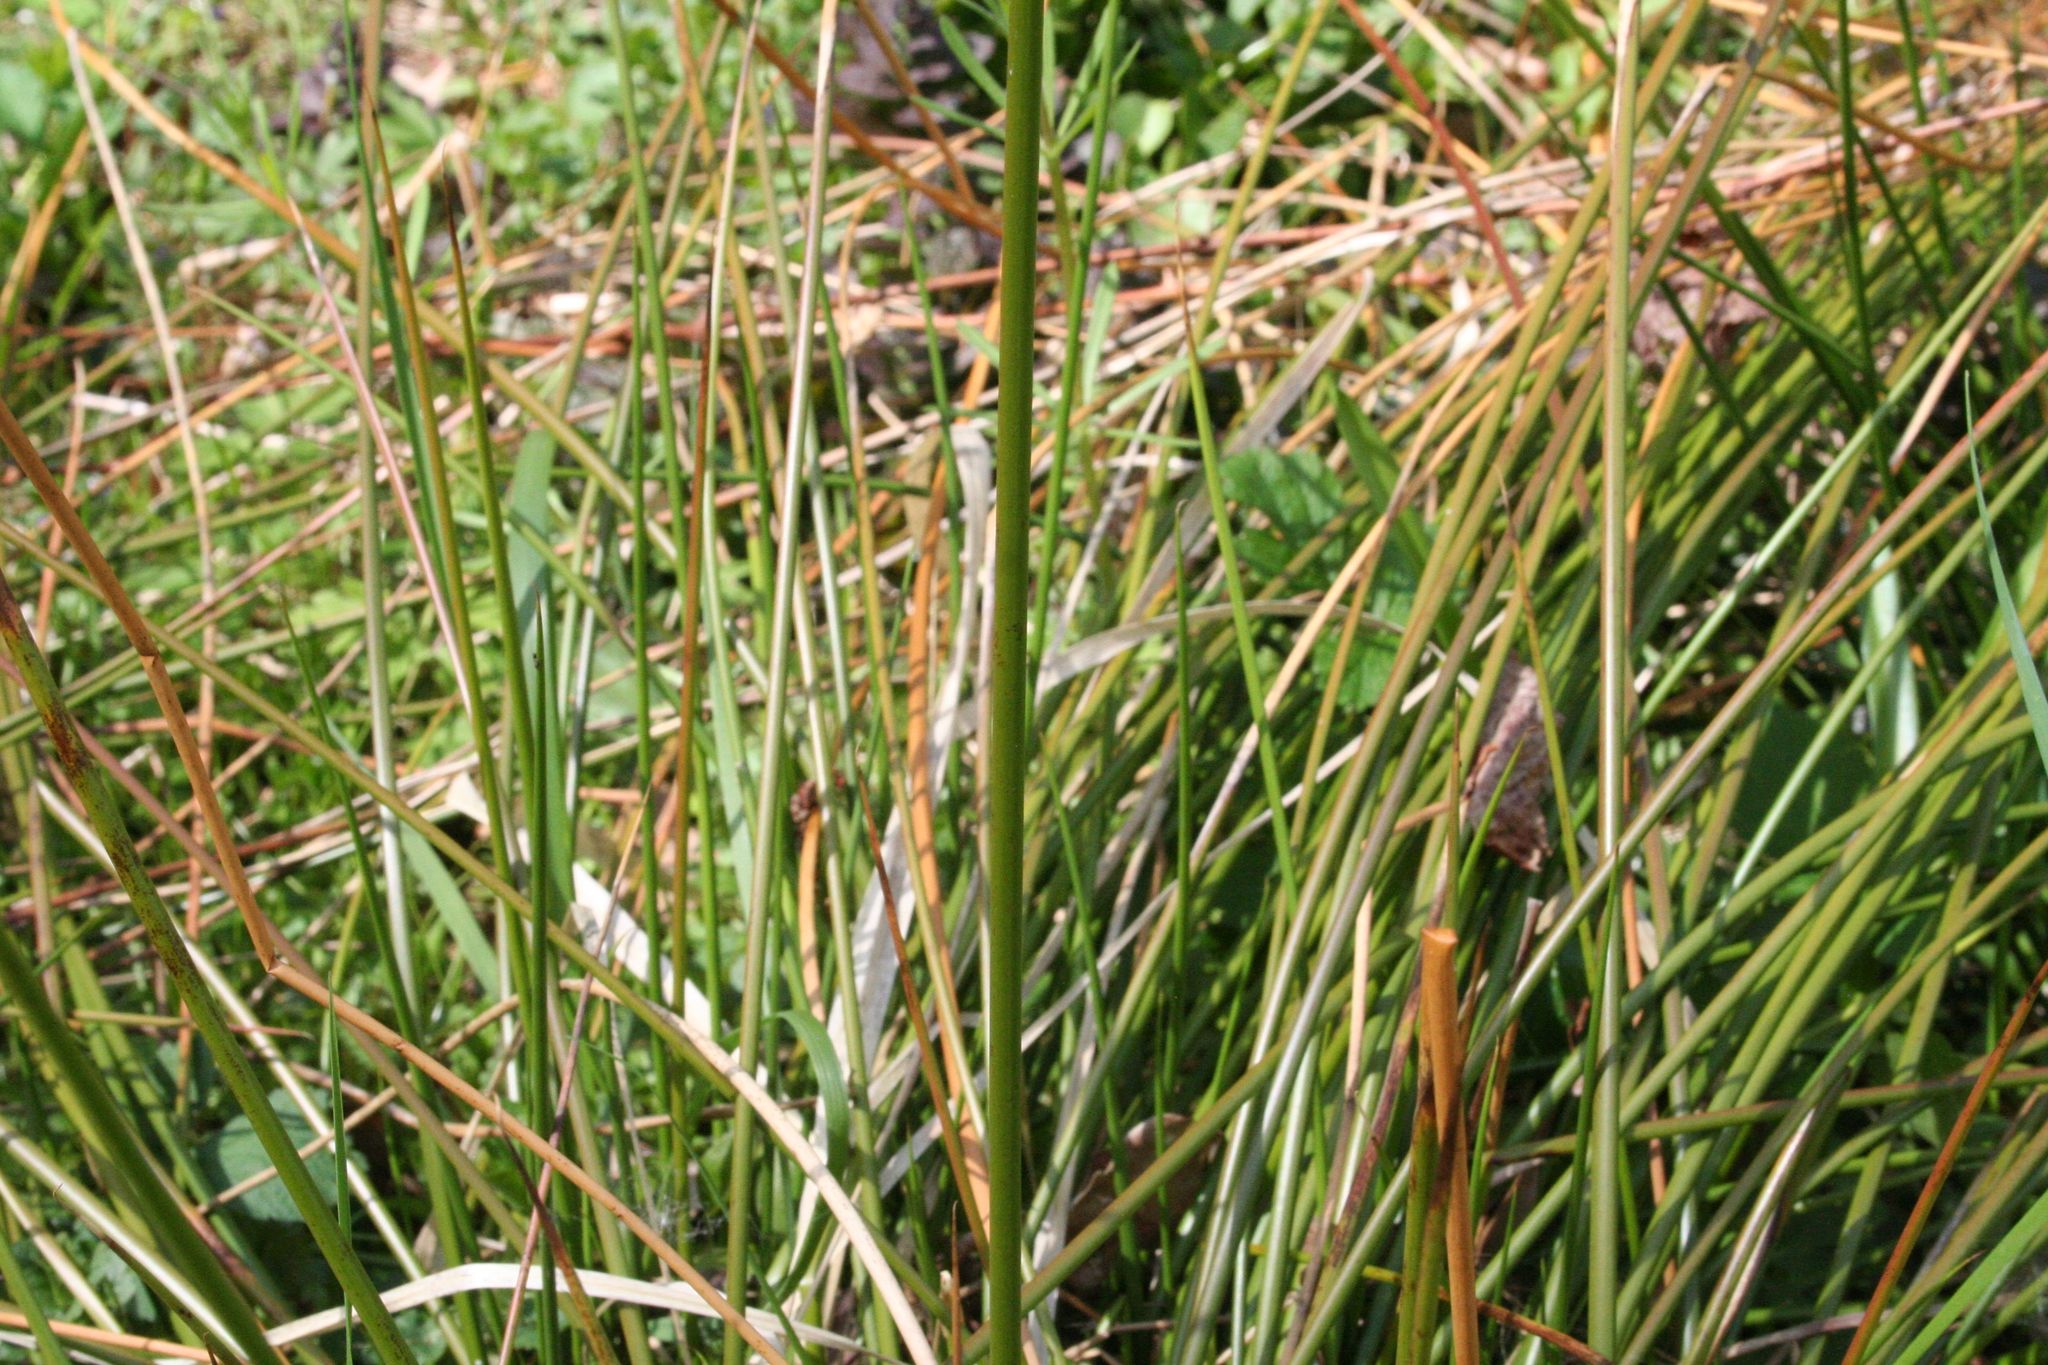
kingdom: Plantae
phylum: Tracheophyta
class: Liliopsida
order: Poales
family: Juncaceae
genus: Juncus
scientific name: Juncus effusus
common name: Soft rush
